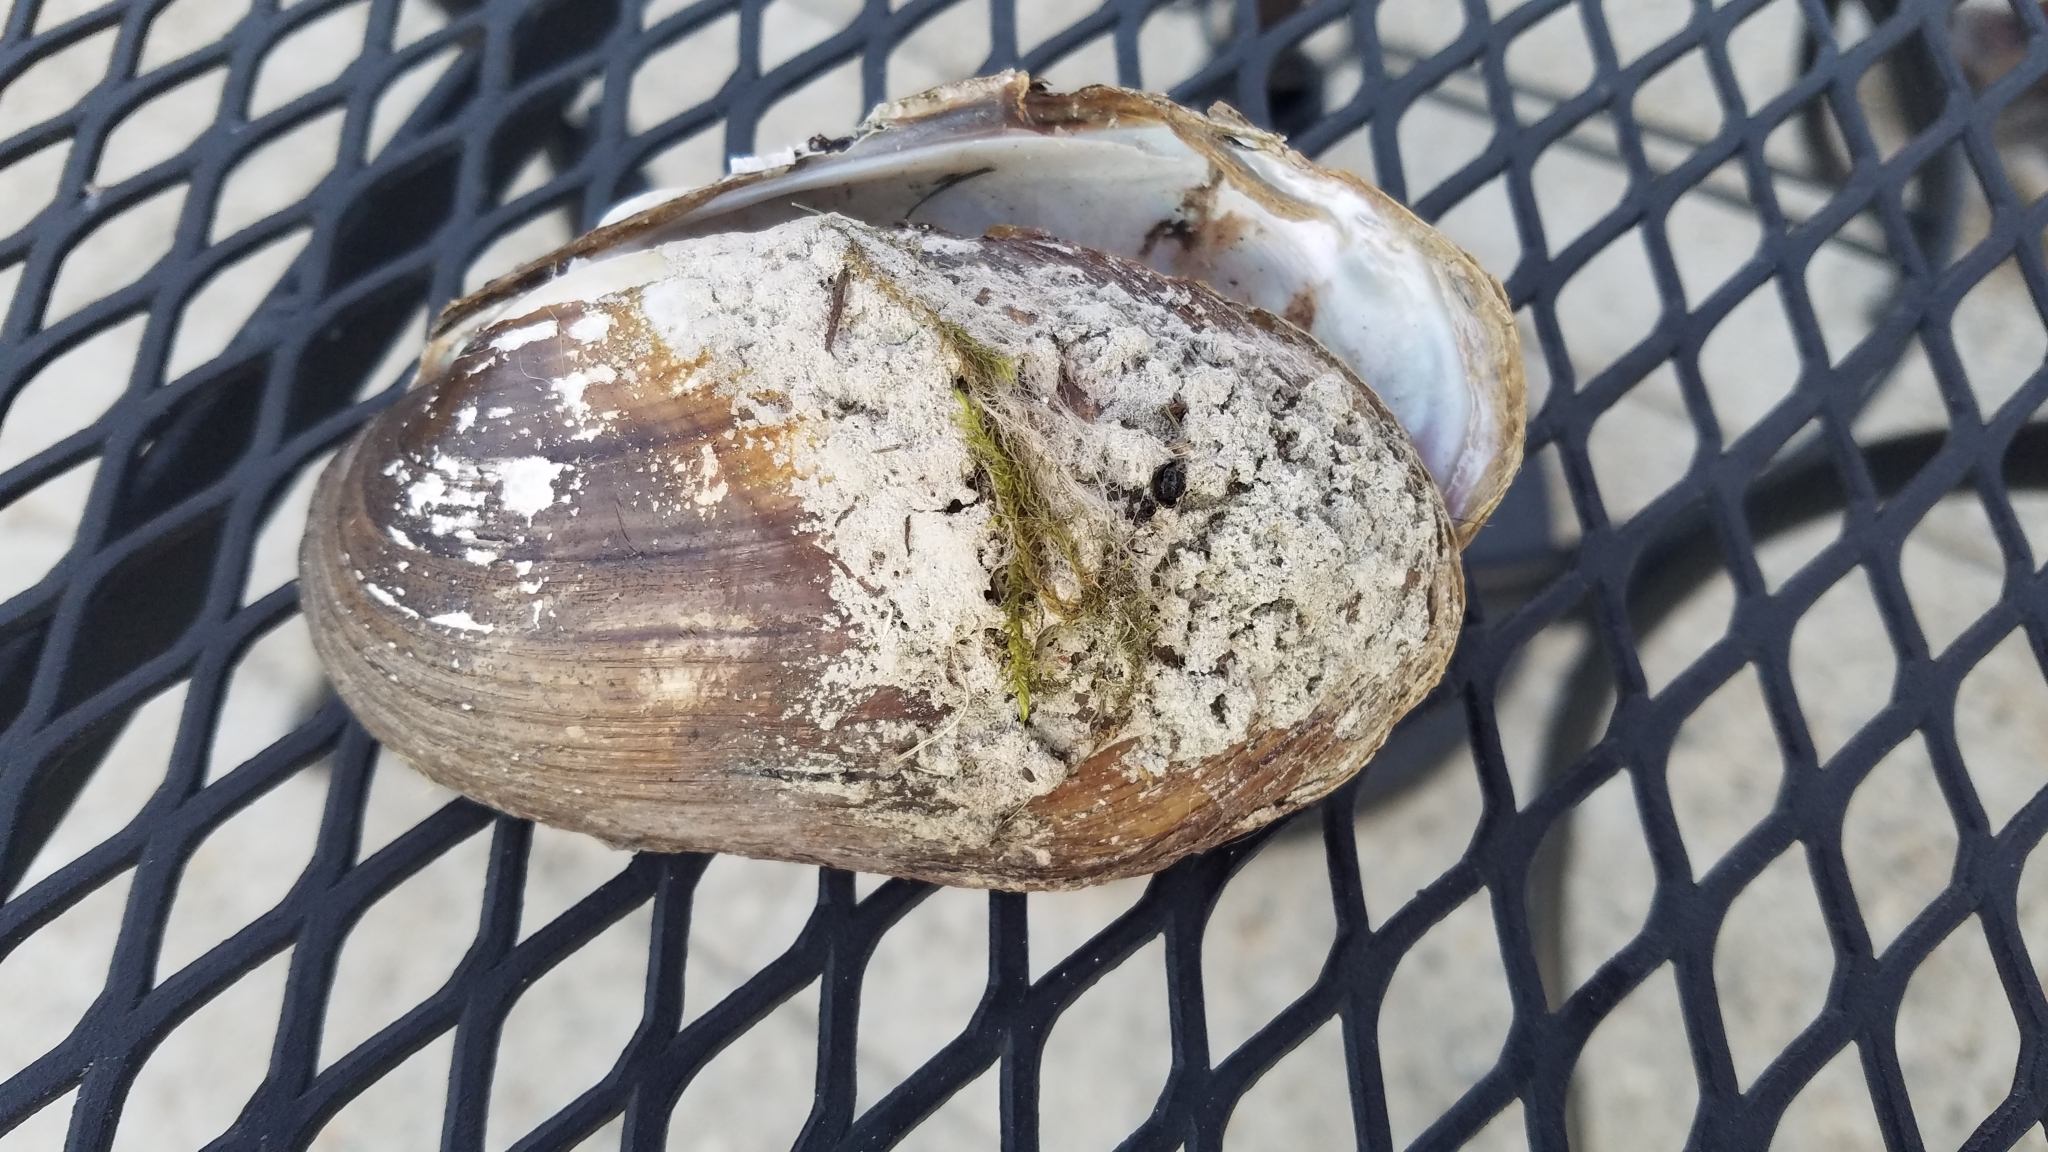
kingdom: Animalia
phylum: Mollusca
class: Bivalvia
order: Unionida
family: Unionidae
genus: Lampsilis
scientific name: Lampsilis siliquoidea
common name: Fatmucket
